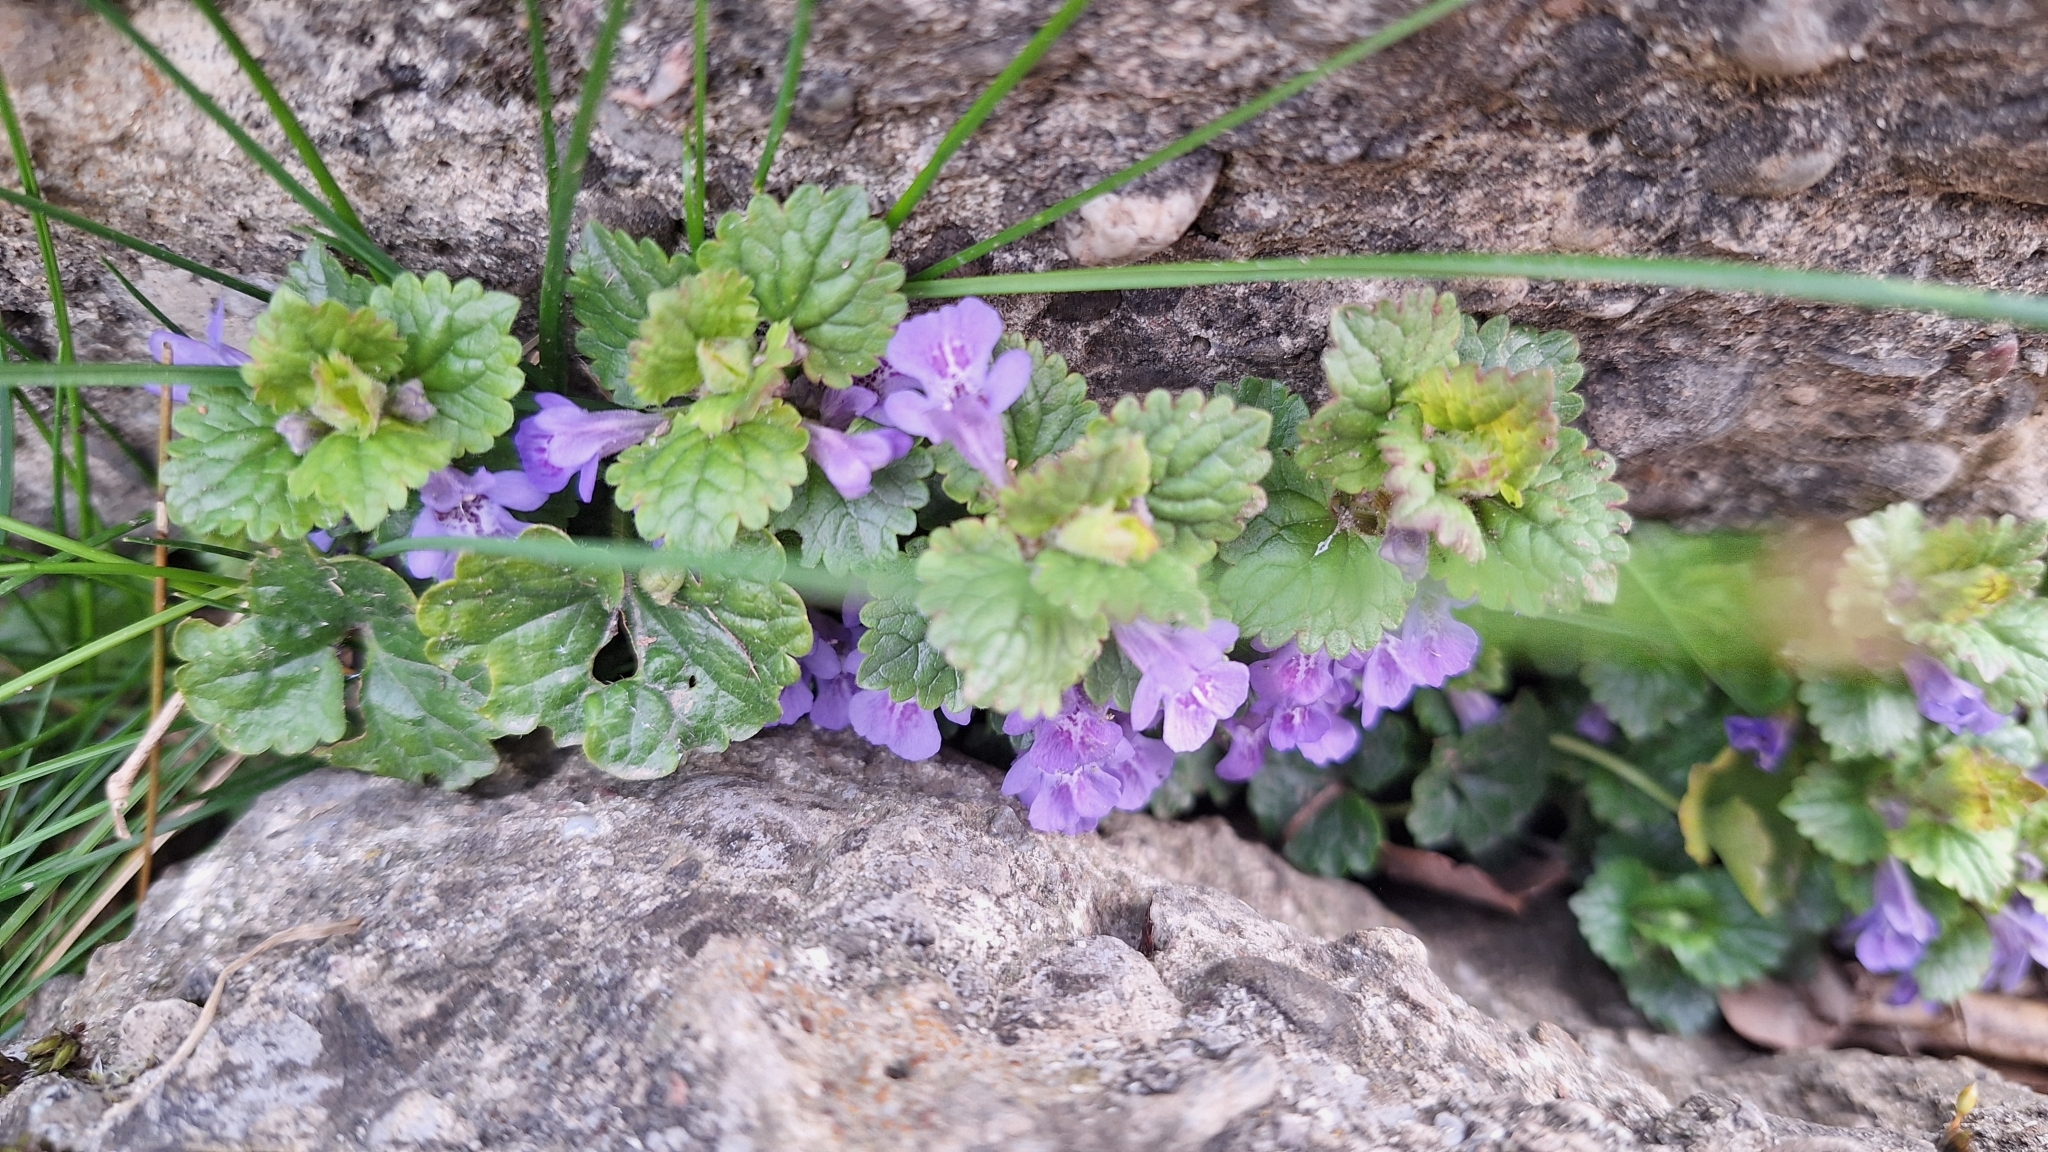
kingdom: Plantae
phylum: Tracheophyta
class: Magnoliopsida
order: Lamiales
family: Lamiaceae
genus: Glechoma
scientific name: Glechoma hederacea
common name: Ground ivy
